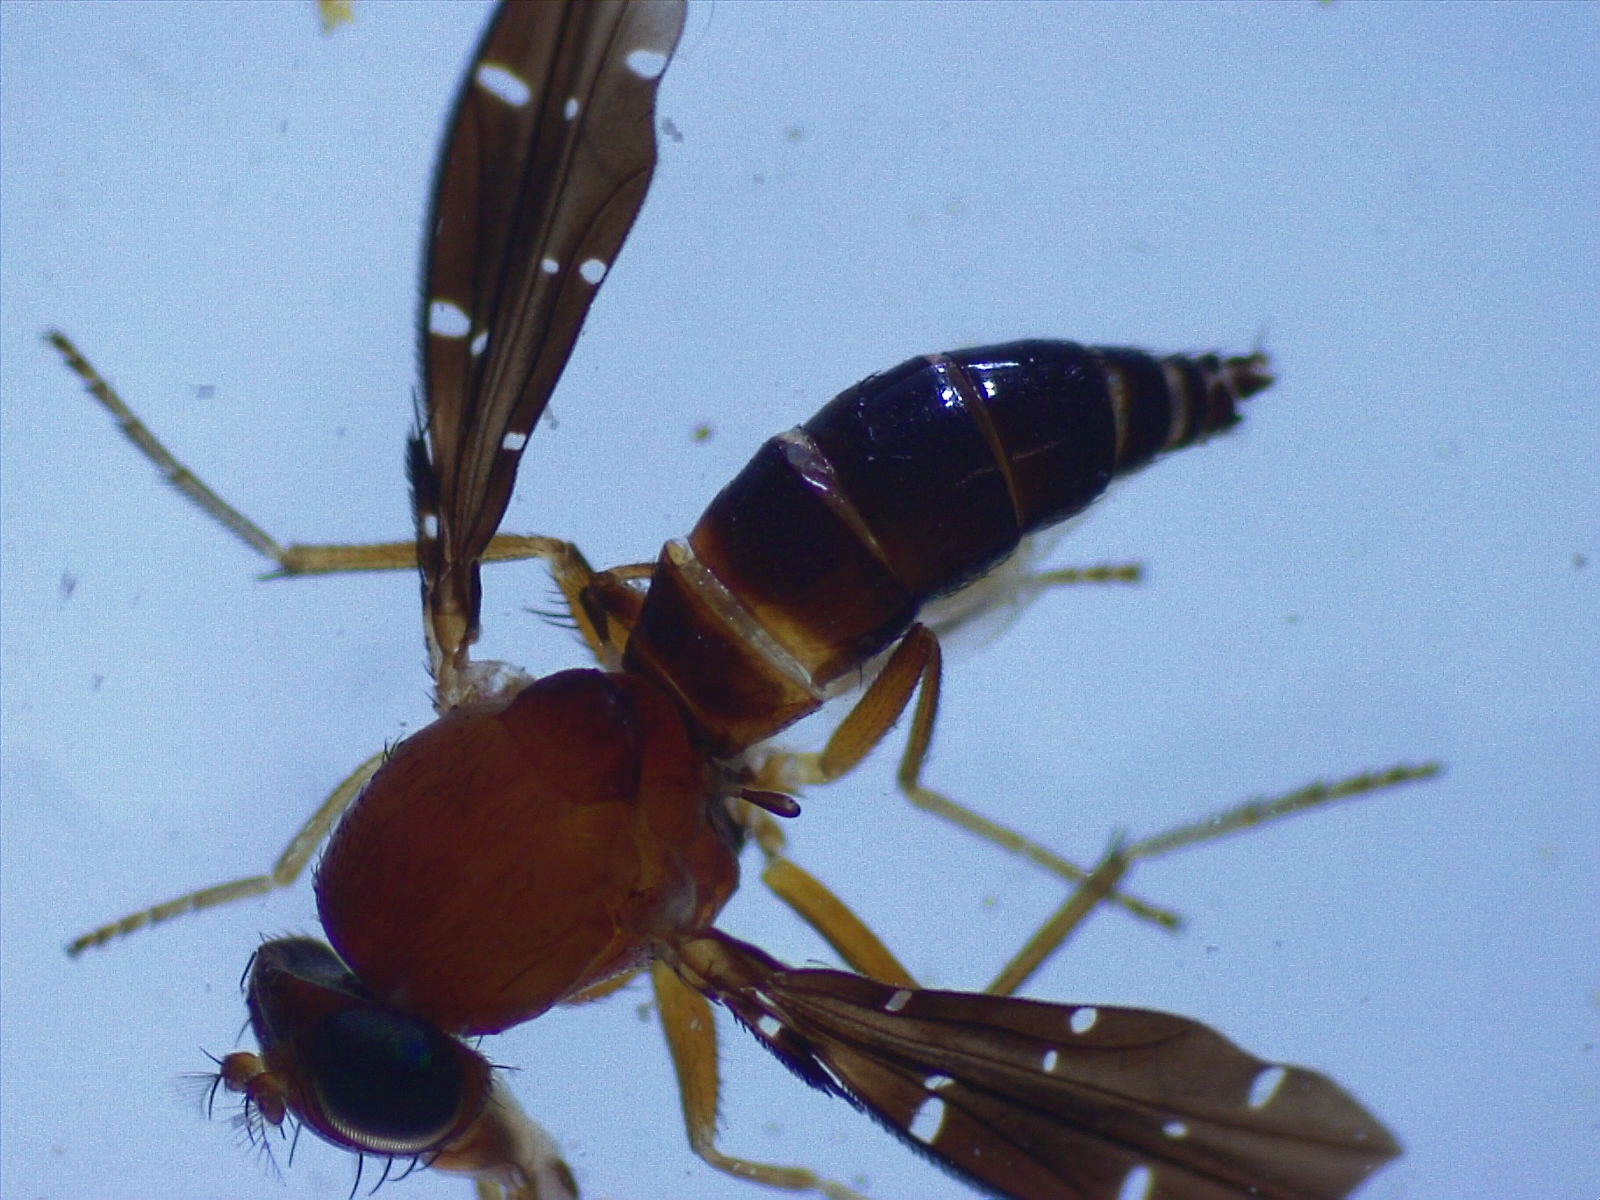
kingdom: Animalia
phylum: Arthropoda
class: Insecta
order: Diptera
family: Ephydridae
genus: Actocetor
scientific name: Actocetor decemugttatus
